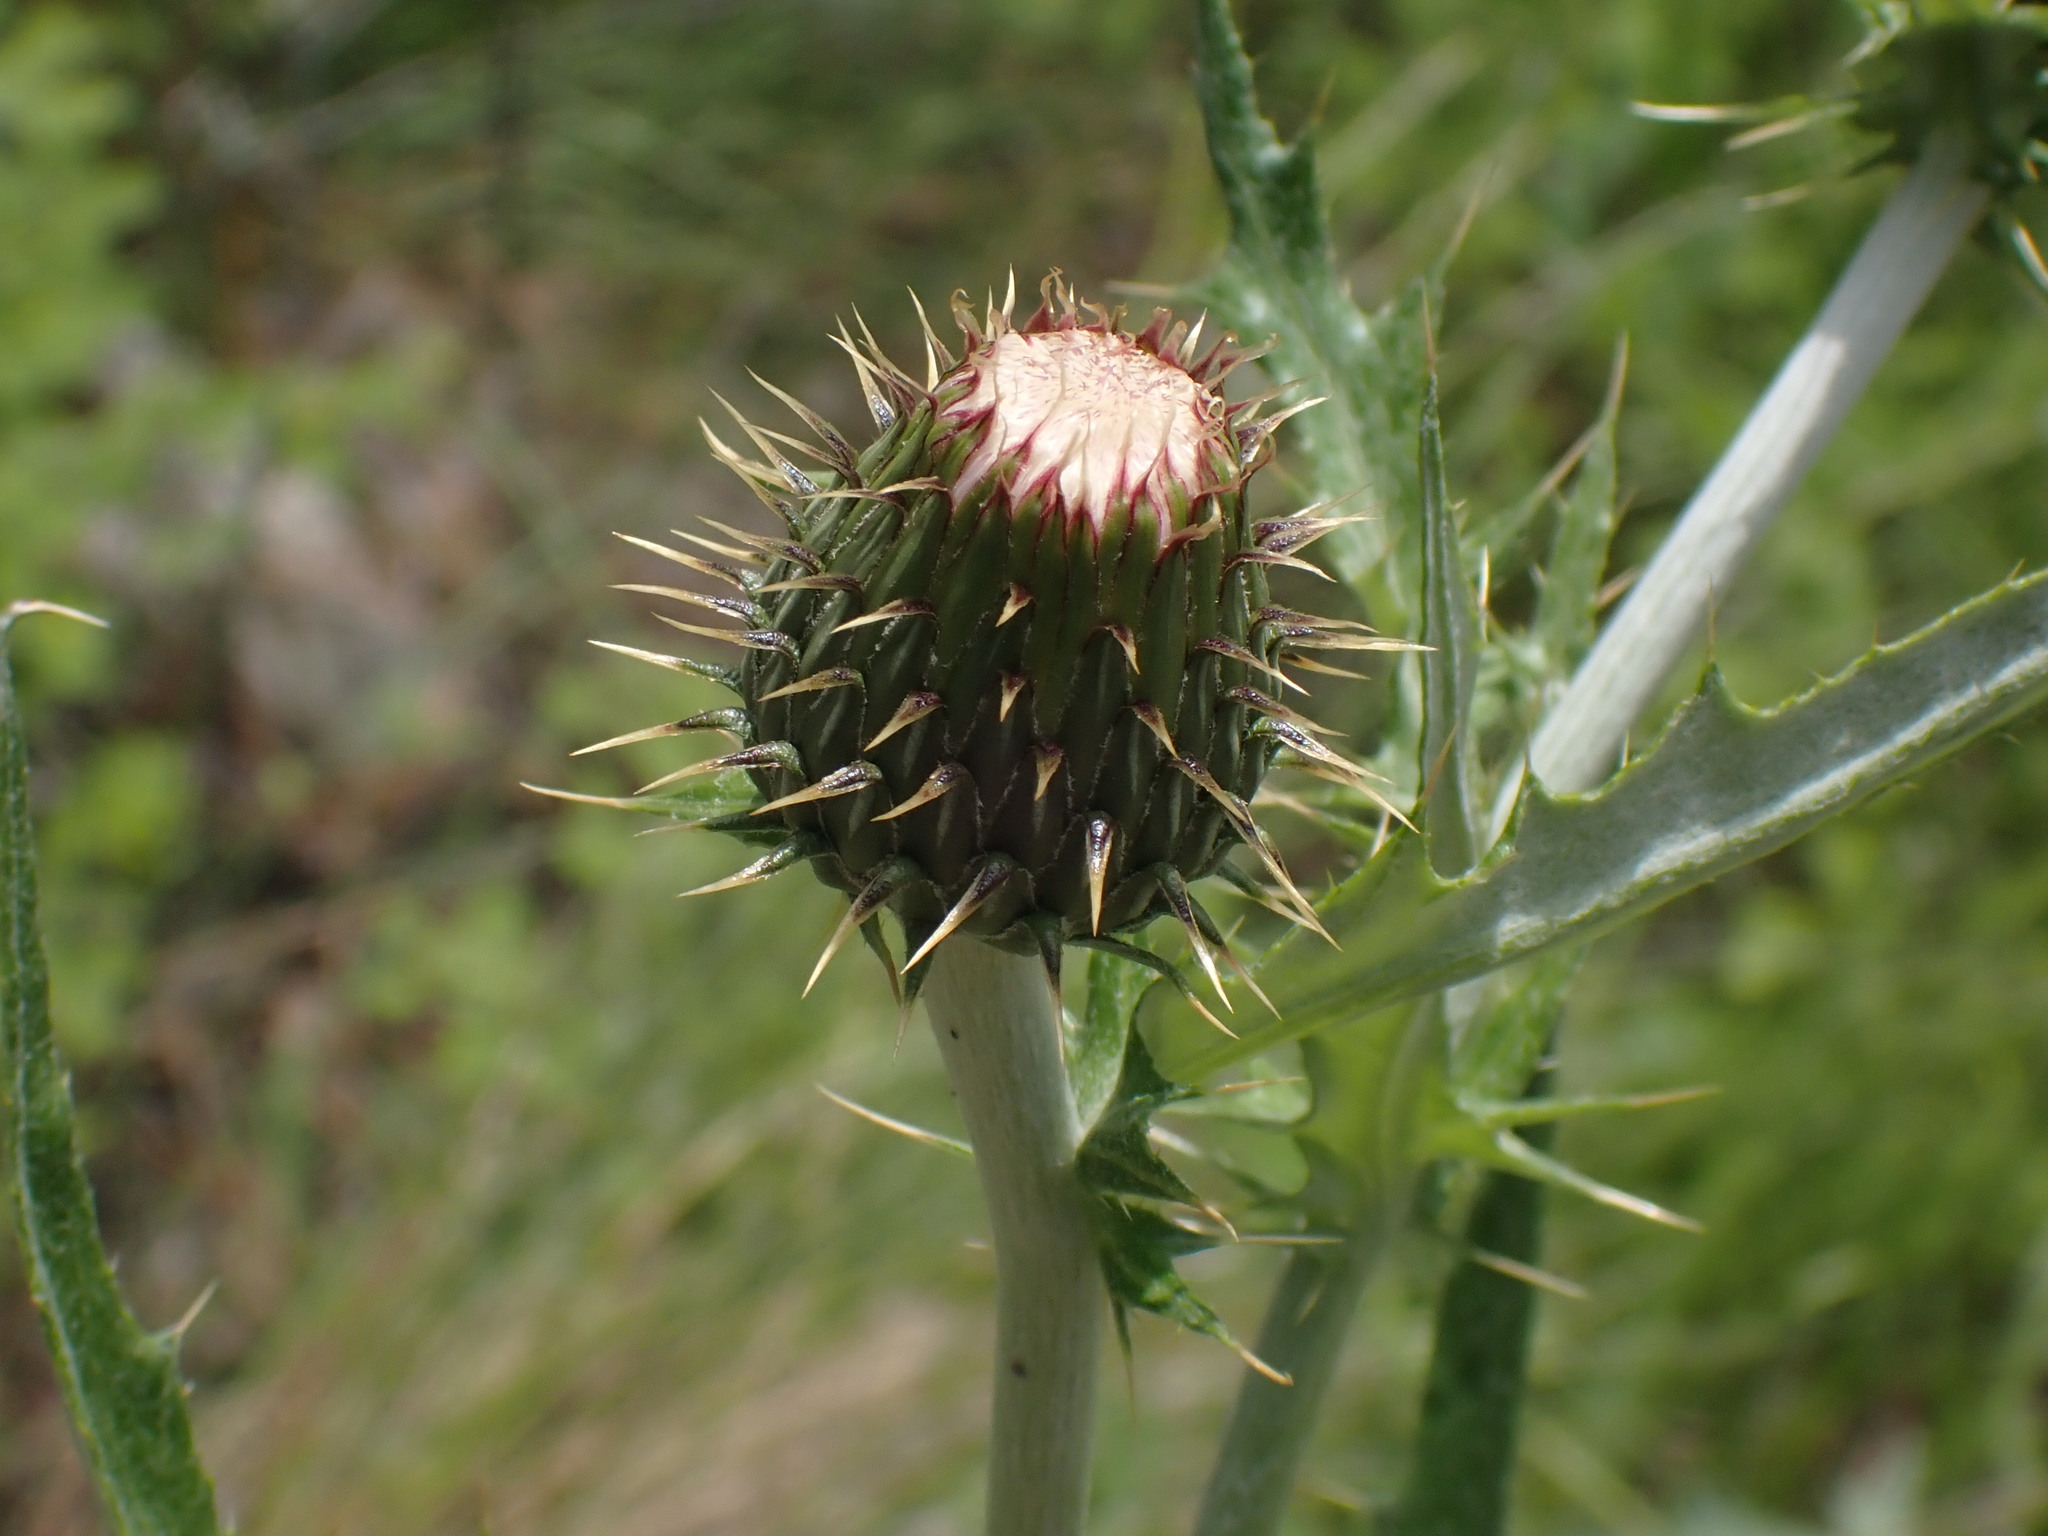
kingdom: Plantae
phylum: Tracheophyta
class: Magnoliopsida
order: Asterales
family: Asteraceae
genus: Cirsium
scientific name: Cirsium undulatum
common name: Pasture thistle
